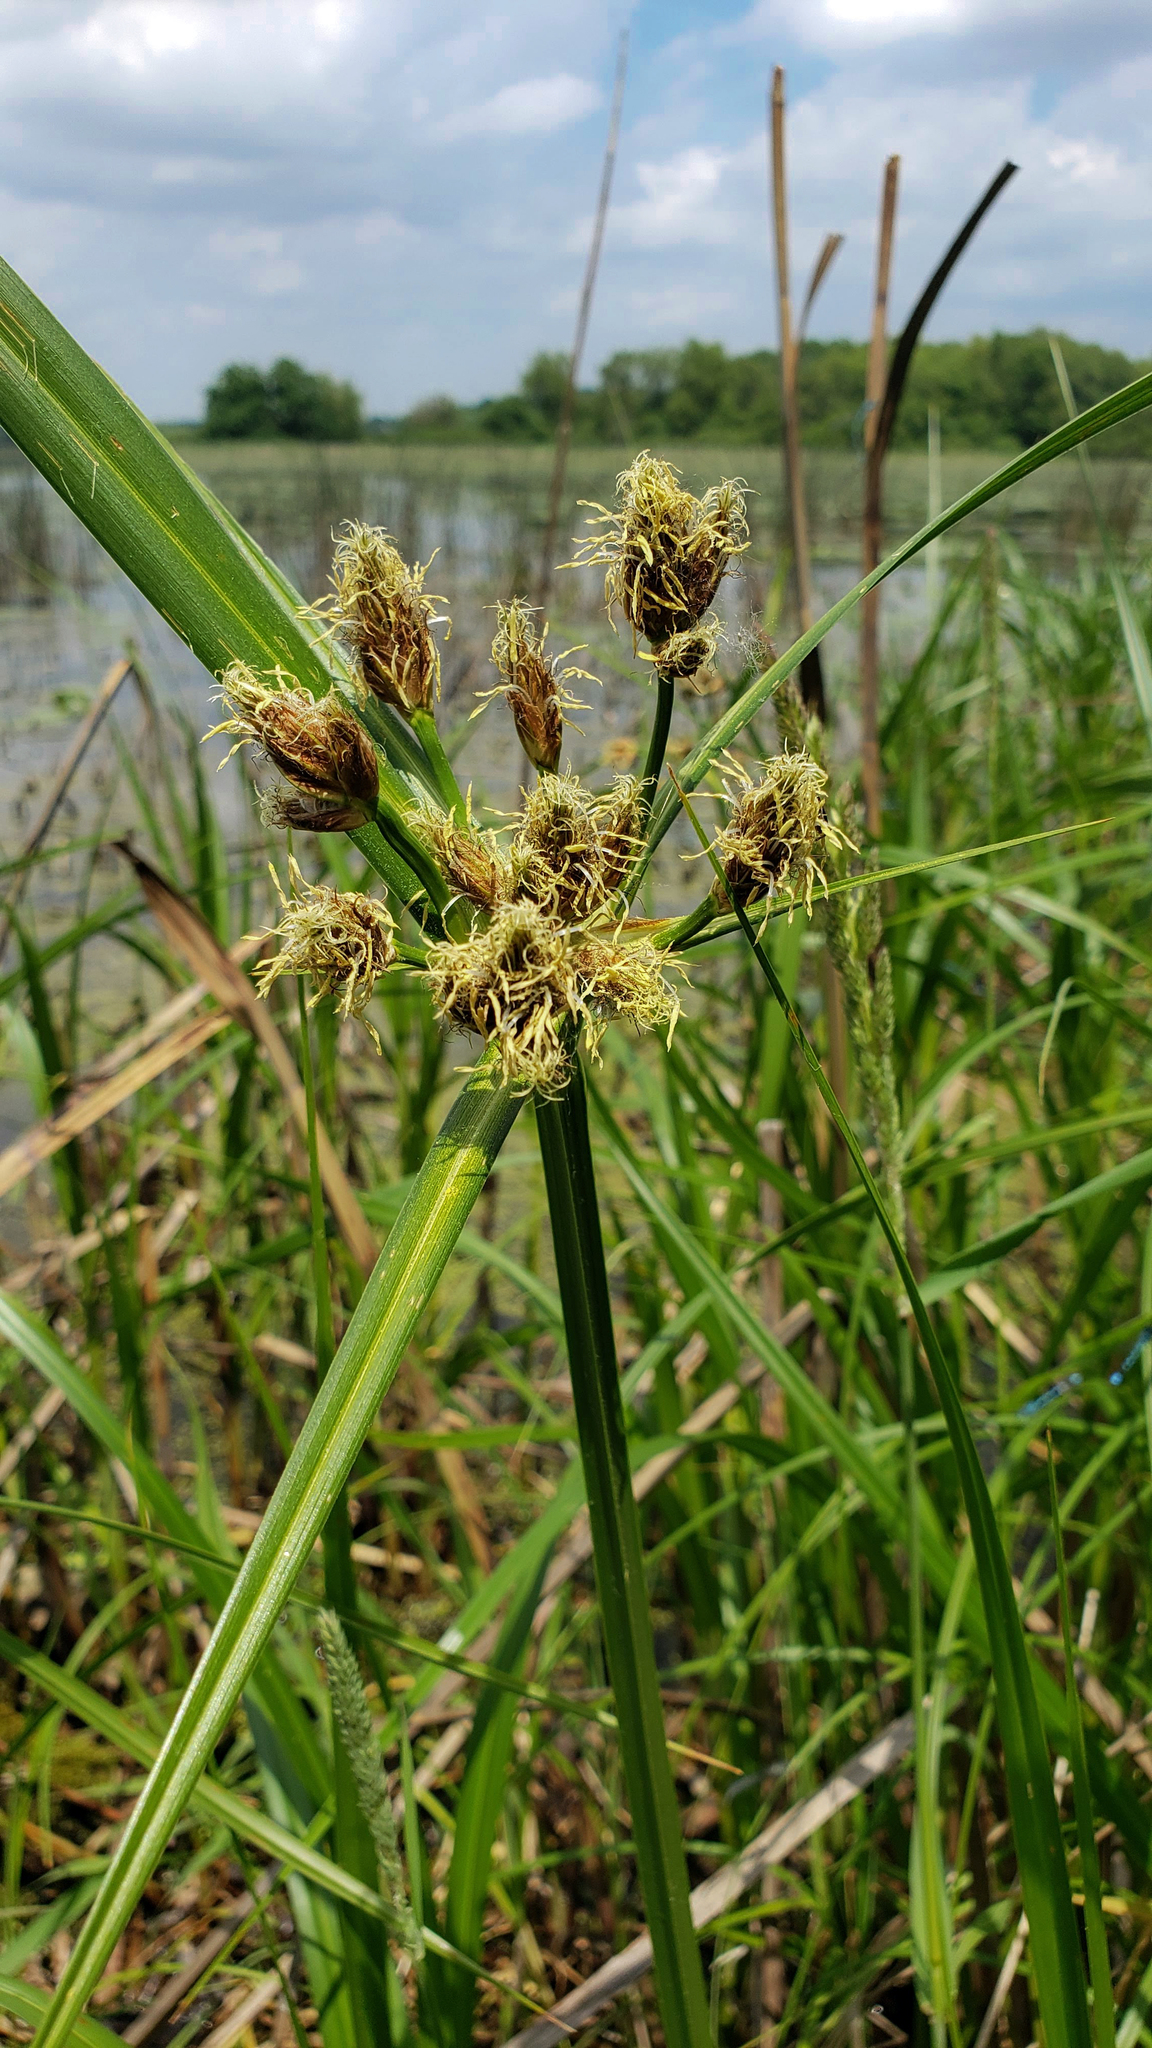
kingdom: Plantae
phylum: Tracheophyta
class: Liliopsida
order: Poales
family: Cyperaceae
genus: Bolboschoenus
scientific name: Bolboschoenus fluviatilis
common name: River bulrush
